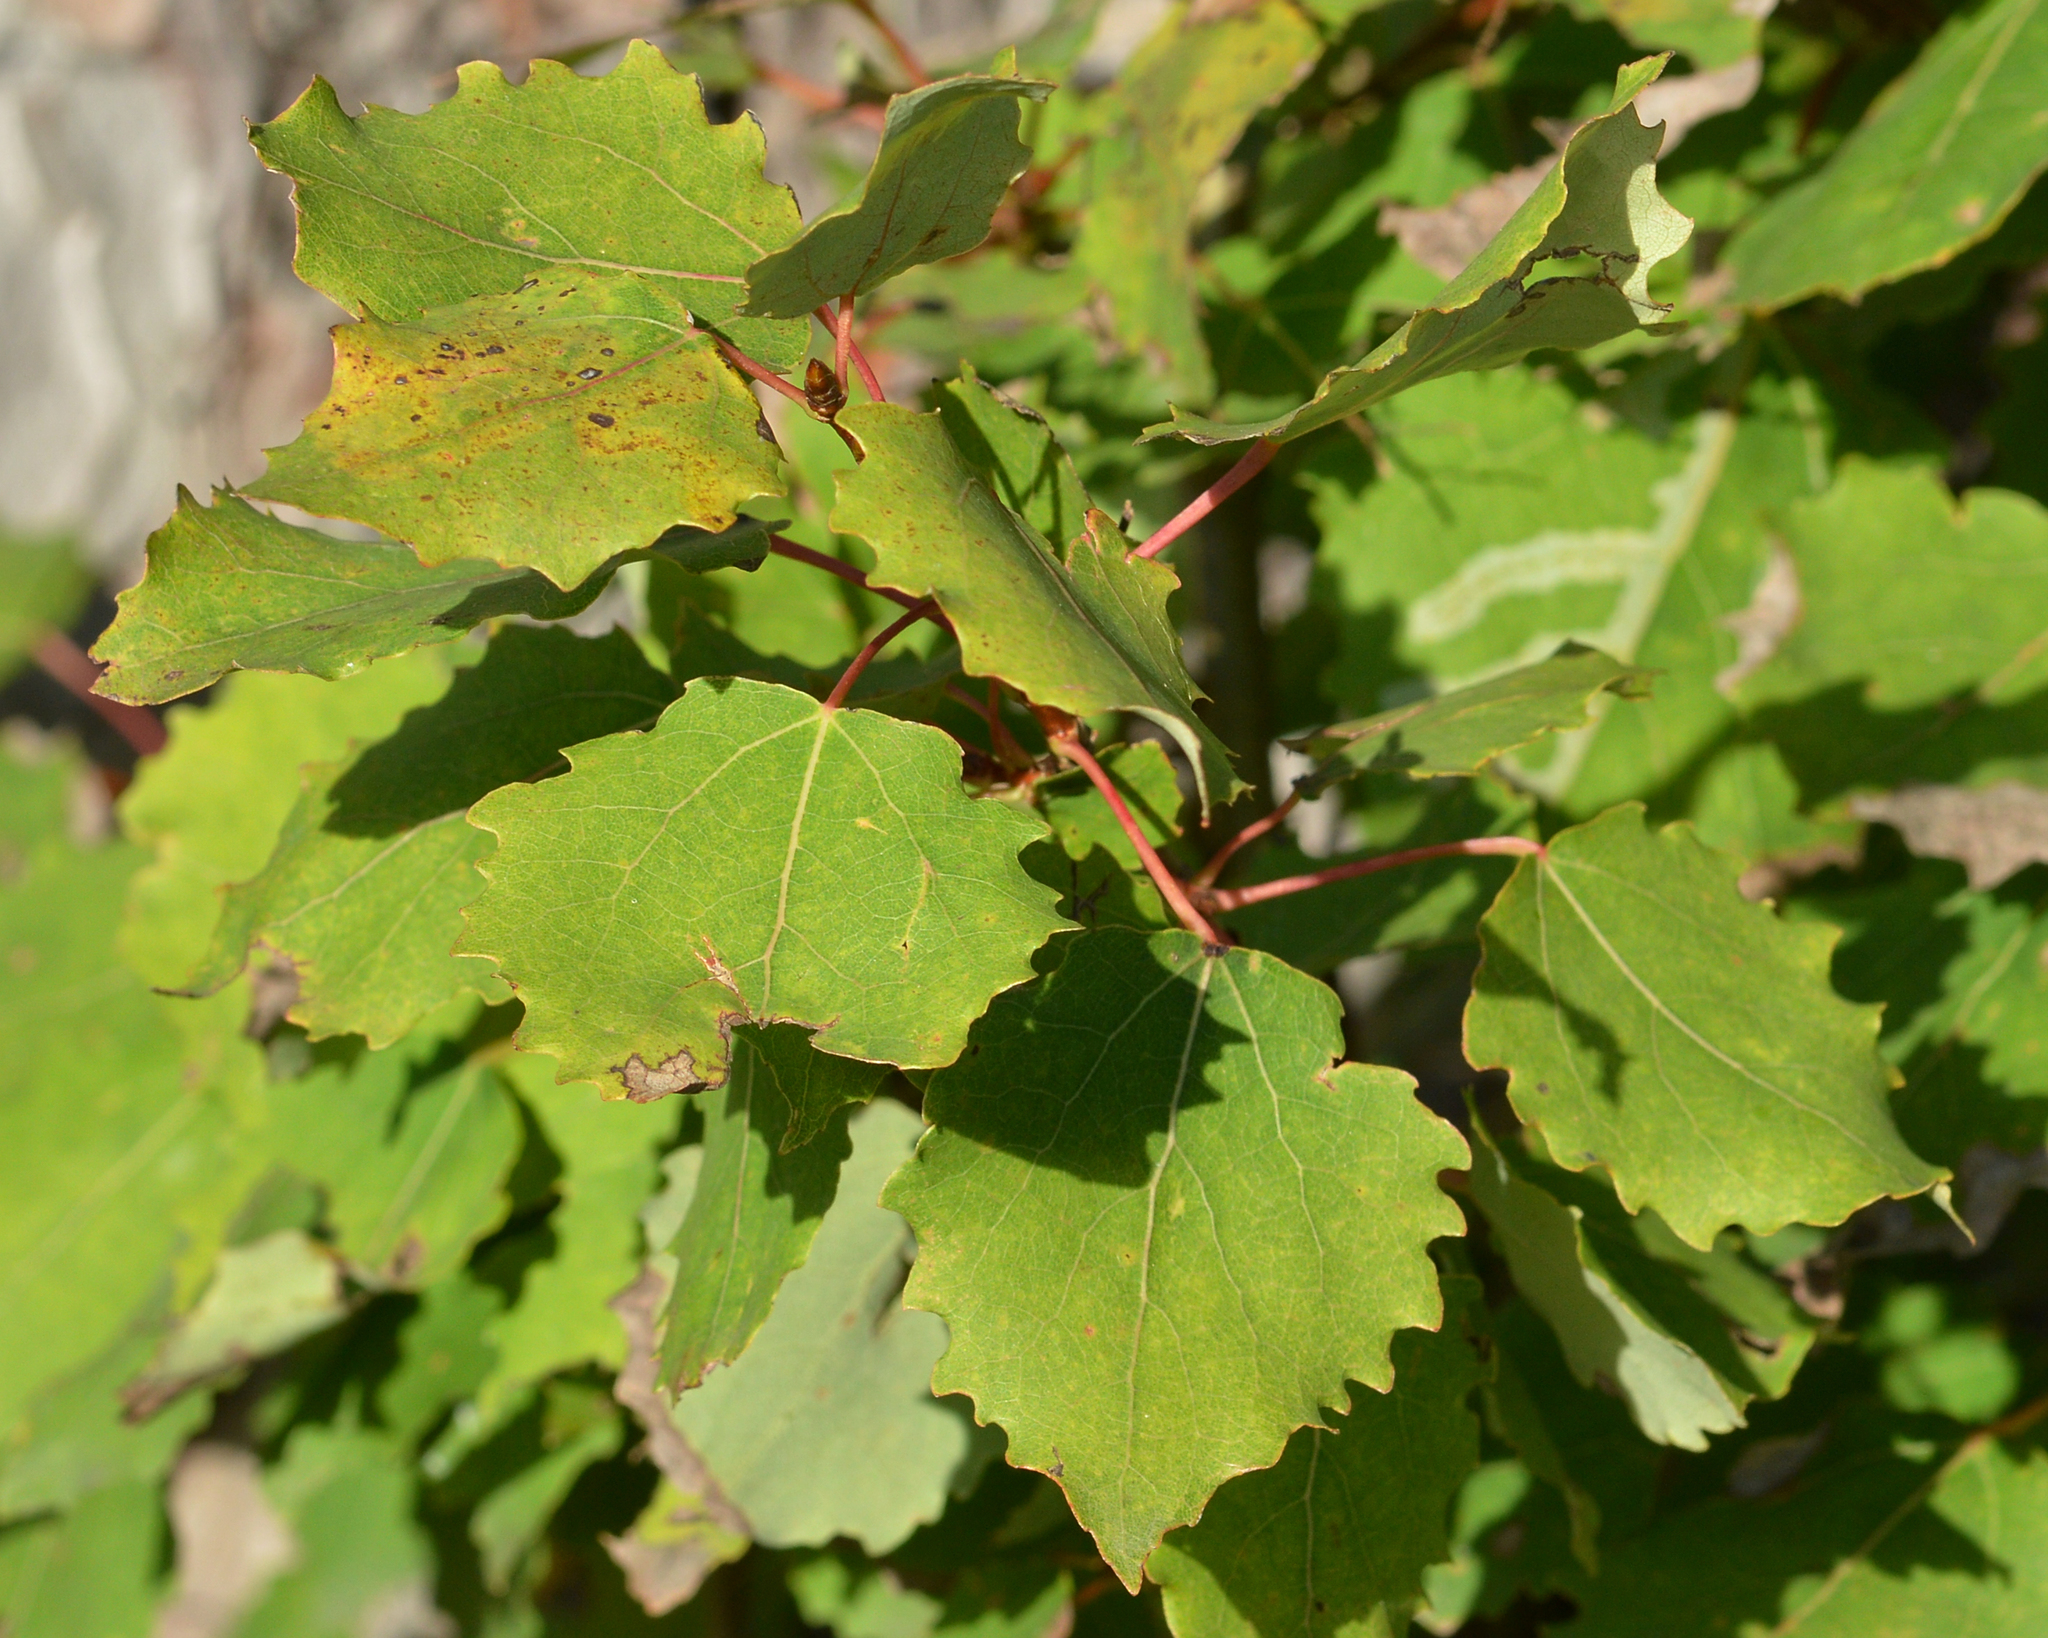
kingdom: Plantae
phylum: Tracheophyta
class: Magnoliopsida
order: Malpighiales
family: Salicaceae
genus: Populus
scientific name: Populus tremula
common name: European aspen
